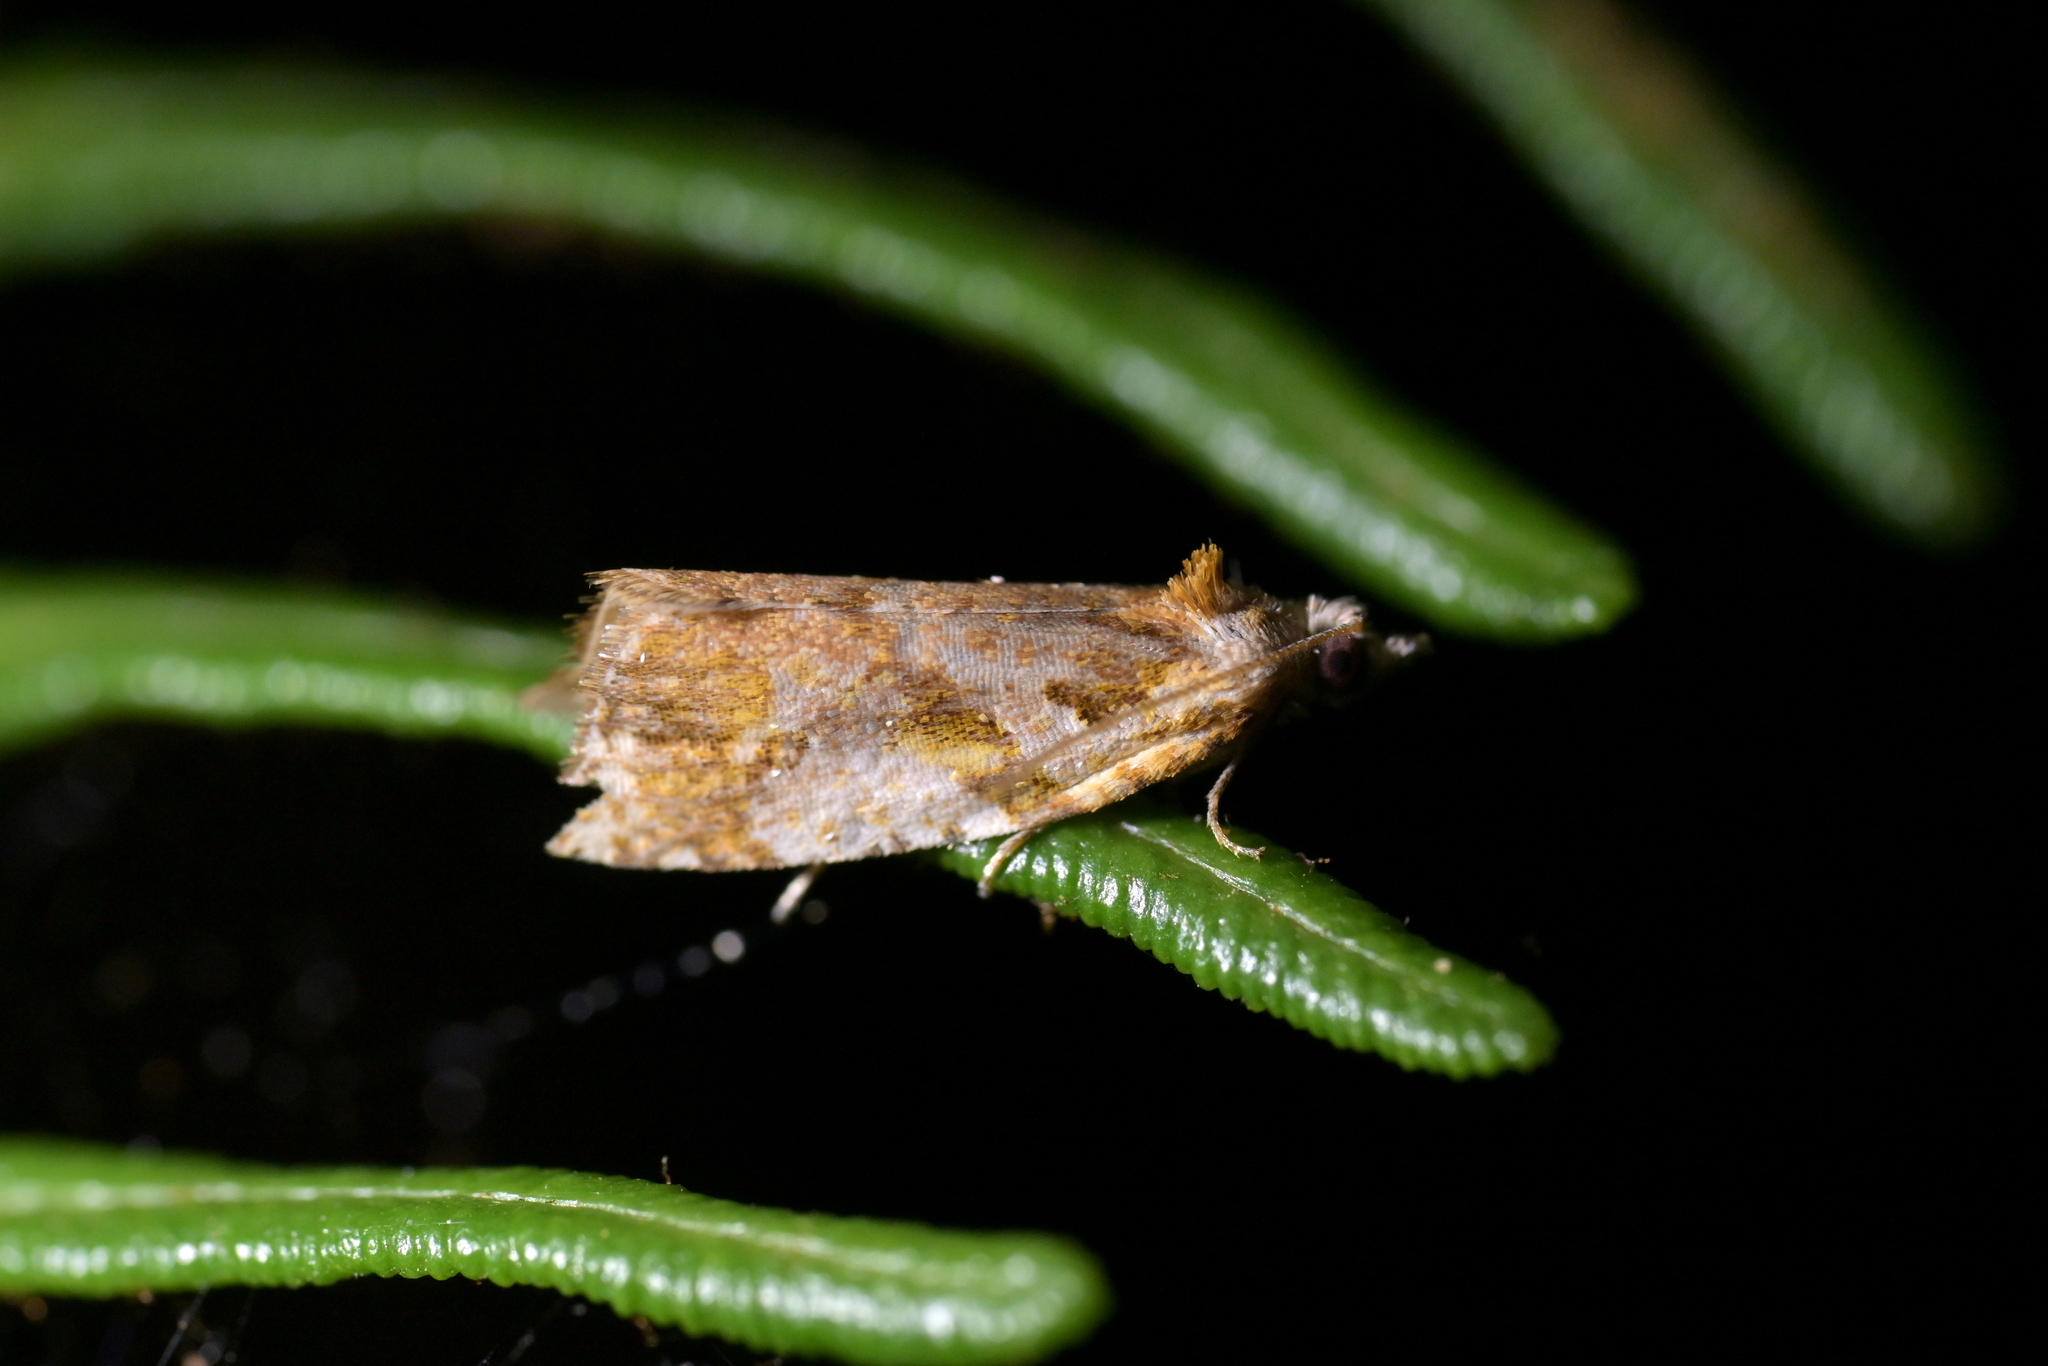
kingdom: Animalia
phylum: Arthropoda
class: Insecta
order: Lepidoptera
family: Tortricidae
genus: Pyrgotis
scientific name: Pyrgotis plagiatana
